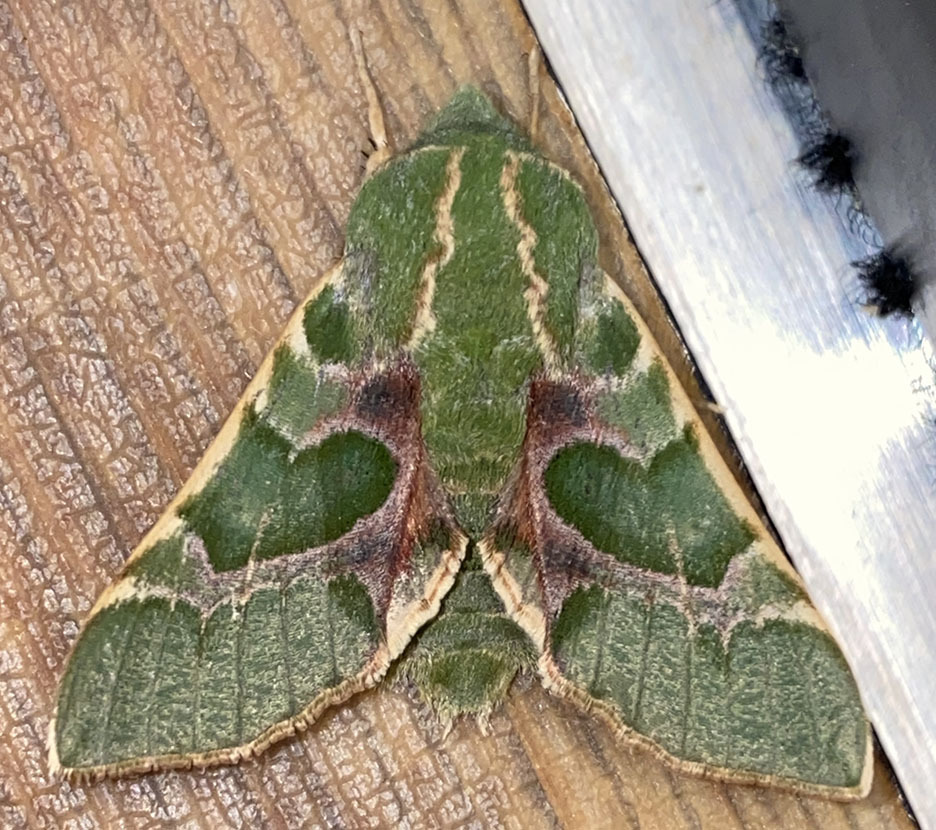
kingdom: Animalia
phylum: Arthropoda
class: Insecta
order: Lepidoptera
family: Sphingidae
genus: Proserpinus
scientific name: Proserpinus lucidus
